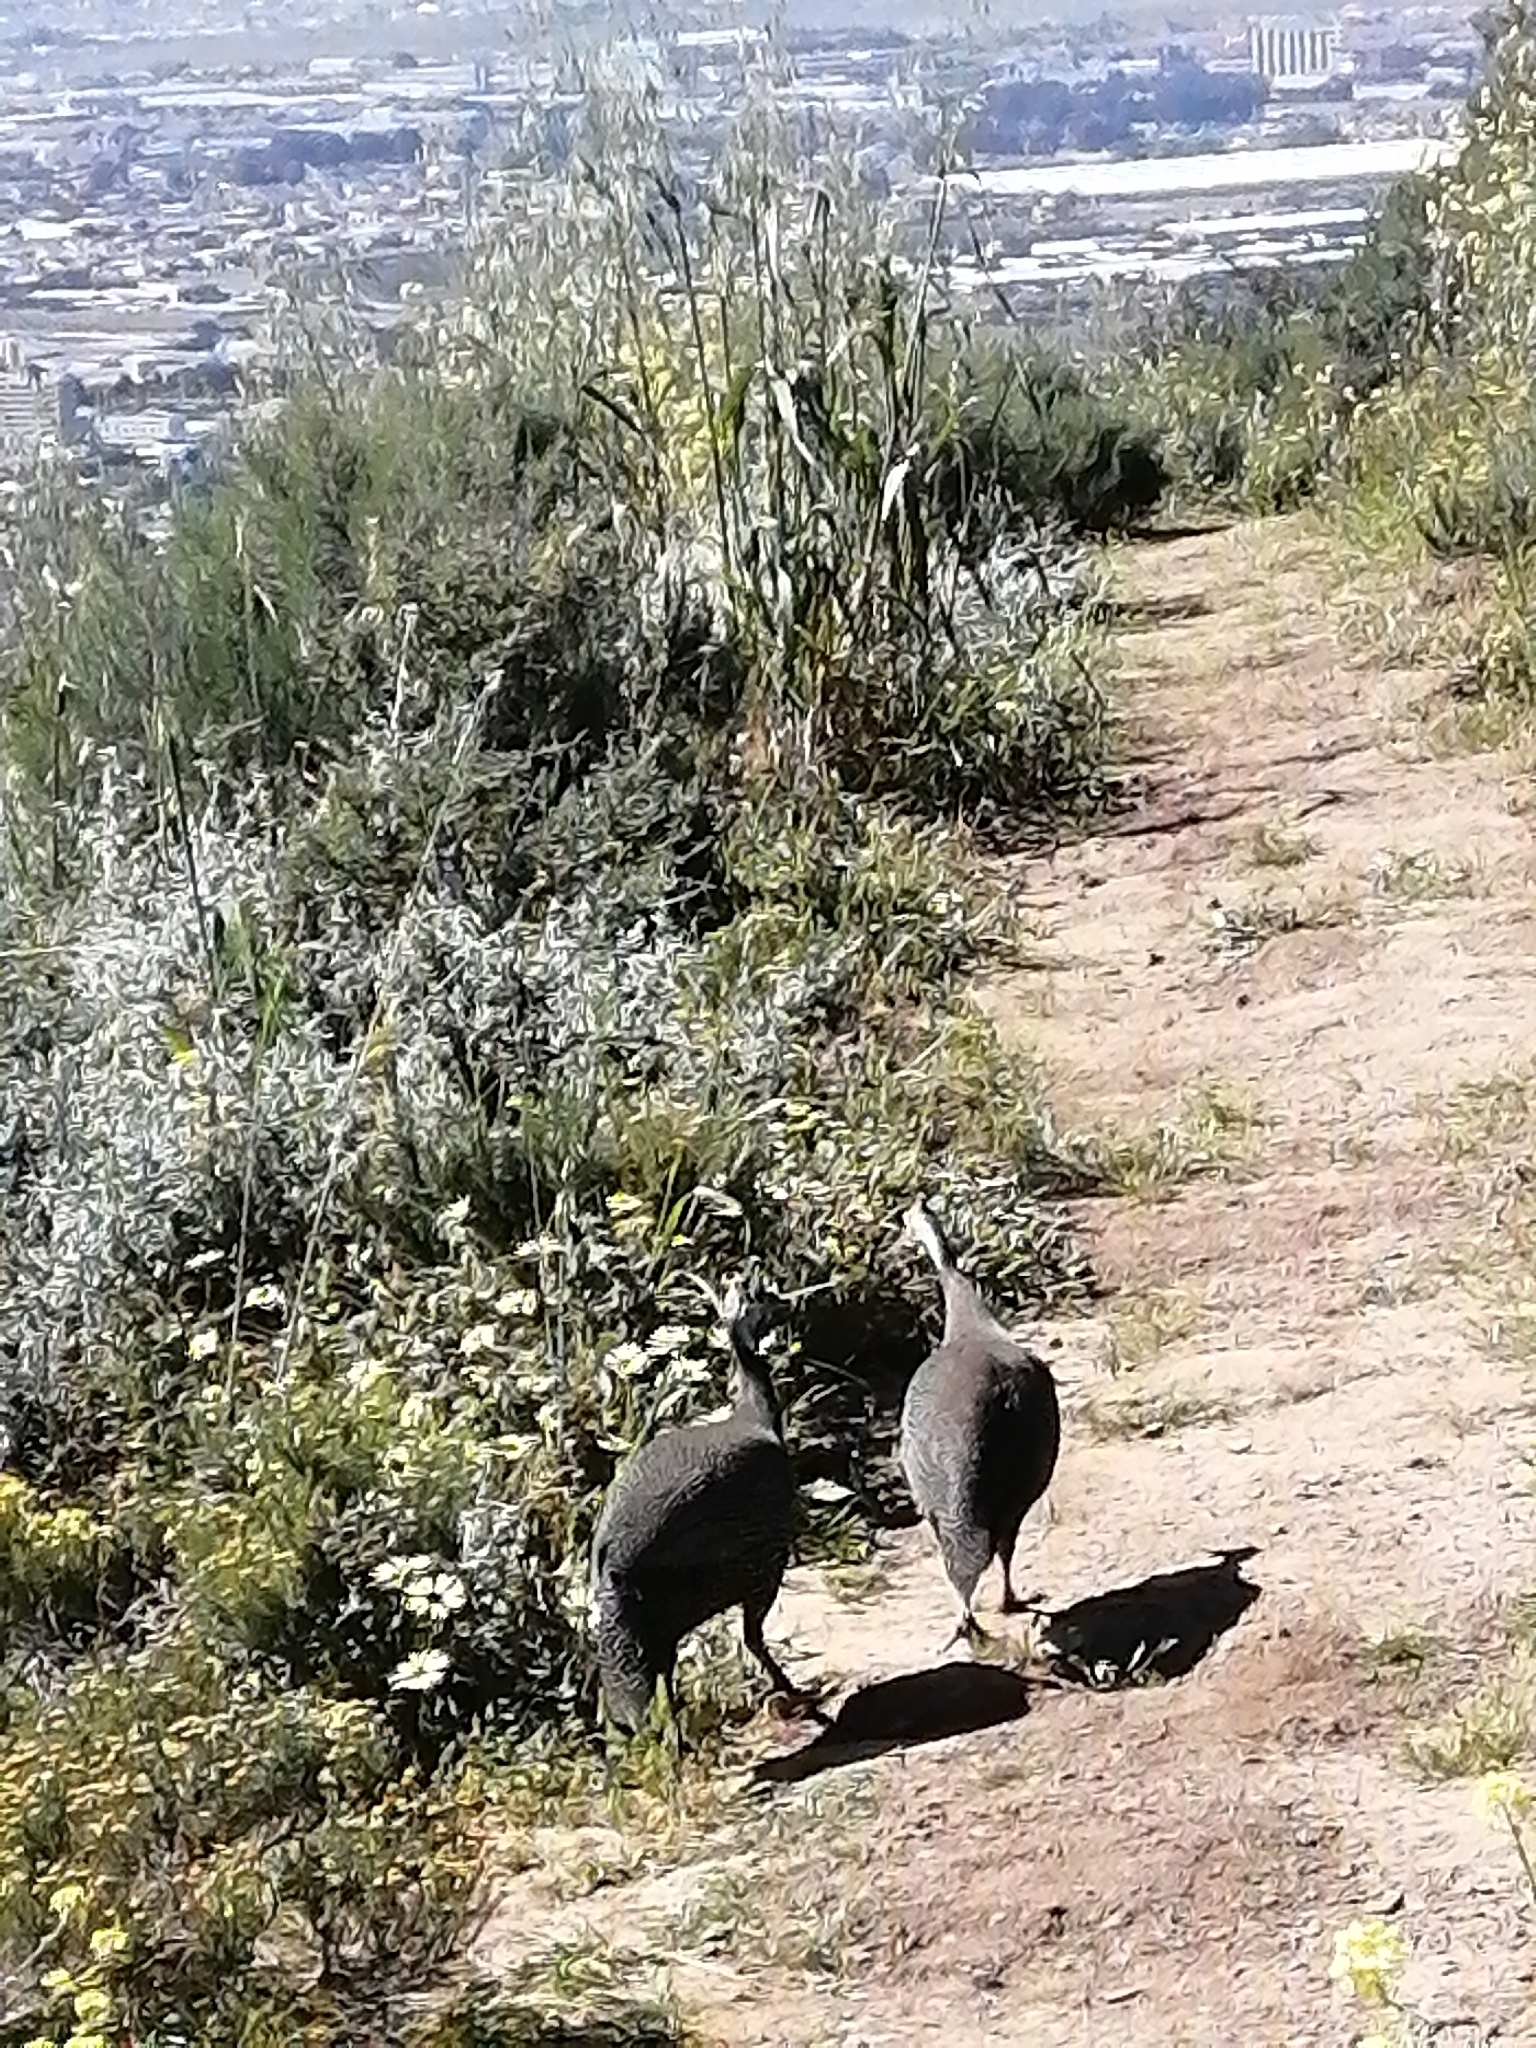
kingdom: Animalia
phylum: Chordata
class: Aves
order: Galliformes
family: Numididae
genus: Numida
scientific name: Numida meleagris
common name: Helmeted guineafowl
